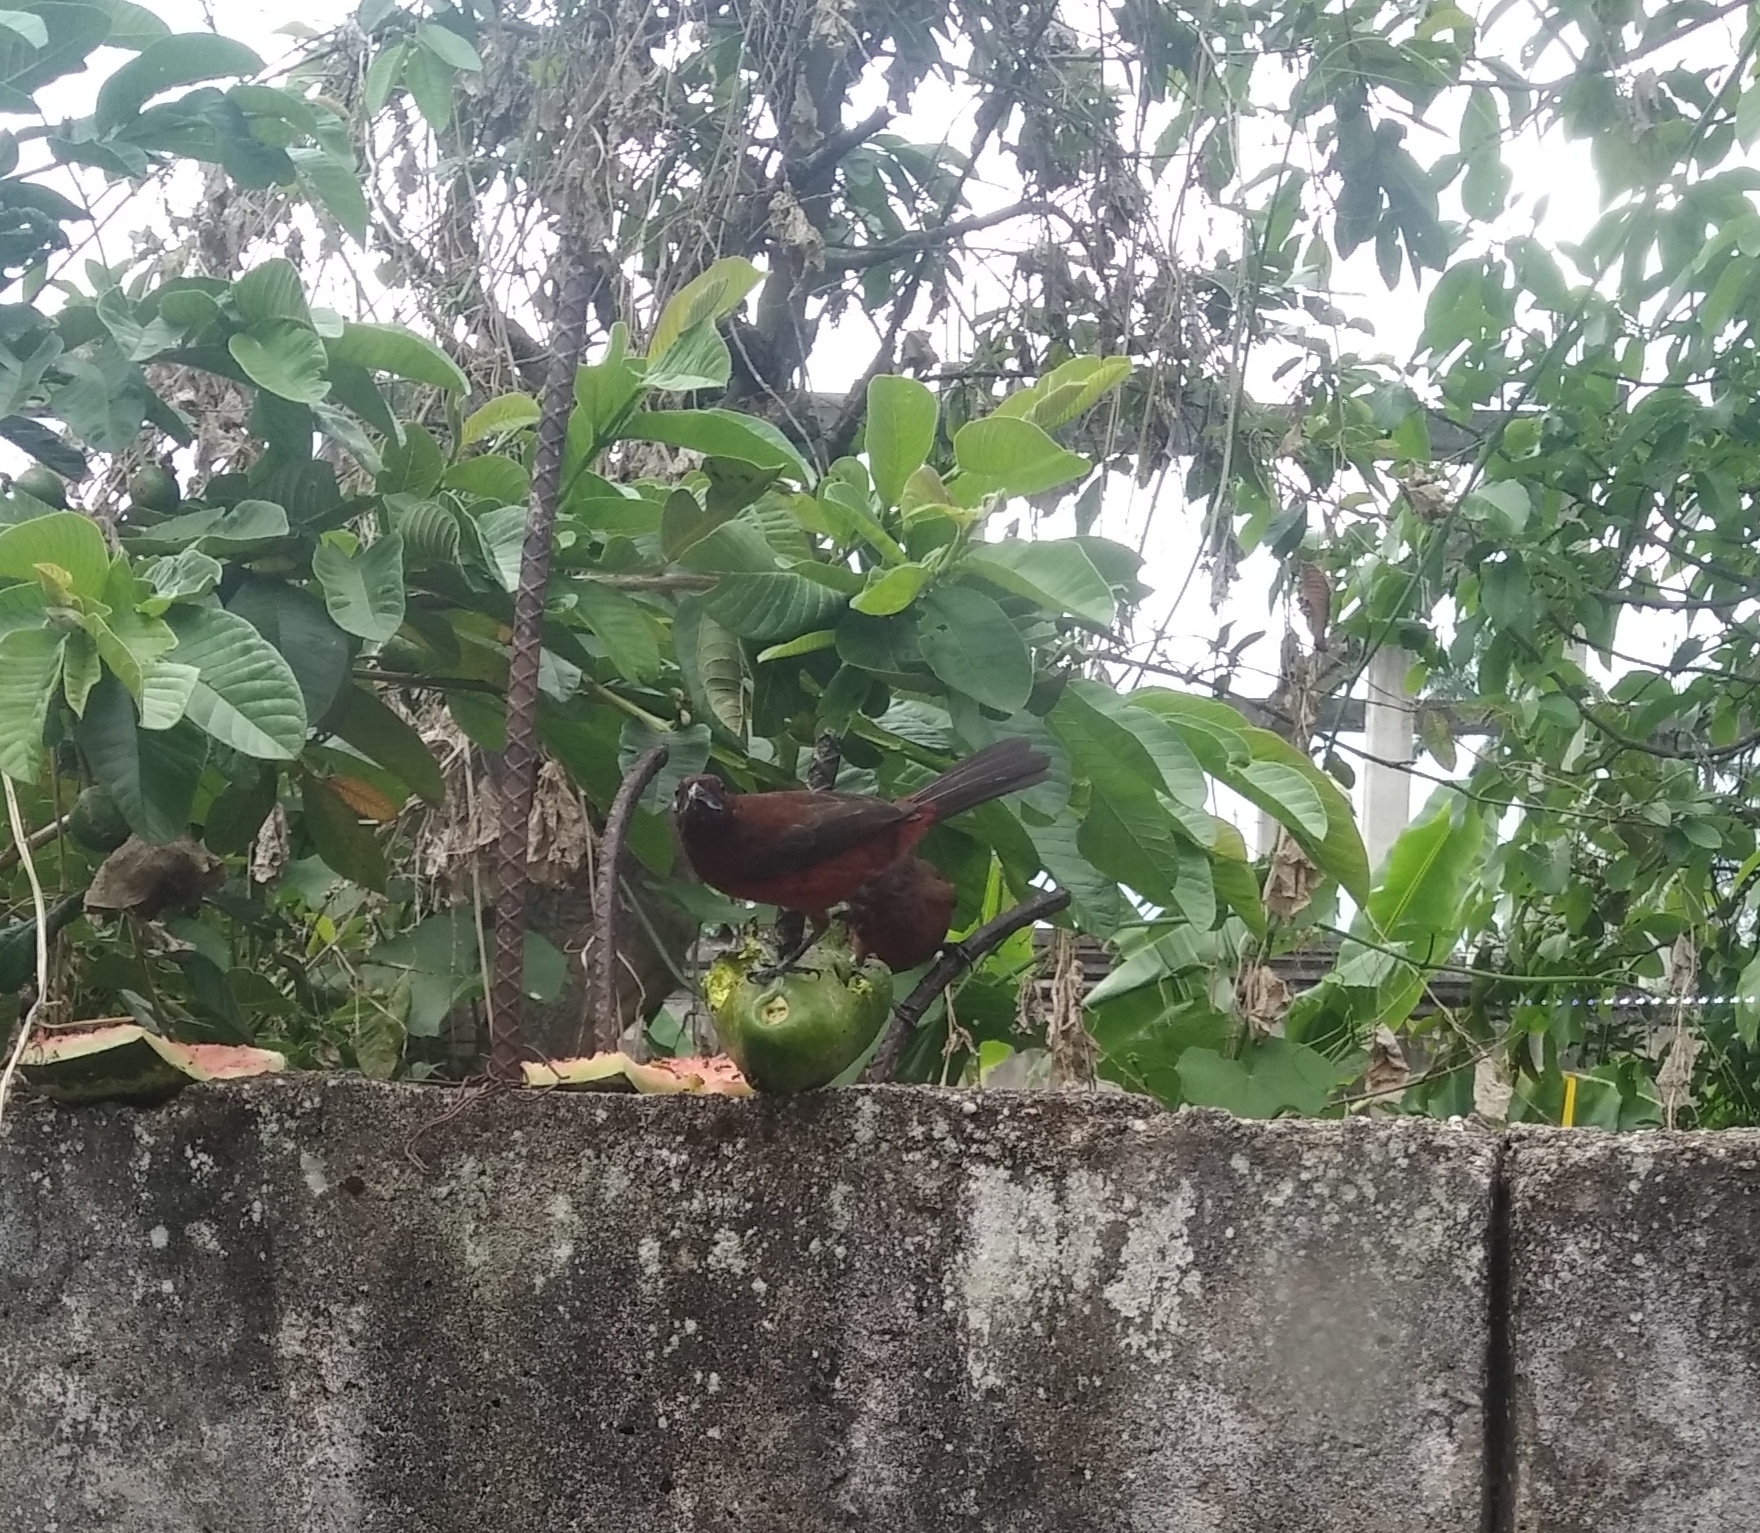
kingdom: Animalia
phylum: Chordata
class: Aves
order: Passeriformes
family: Thraupidae
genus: Ramphocelus
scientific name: Ramphocelus carbo
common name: Silver-beaked tanager
